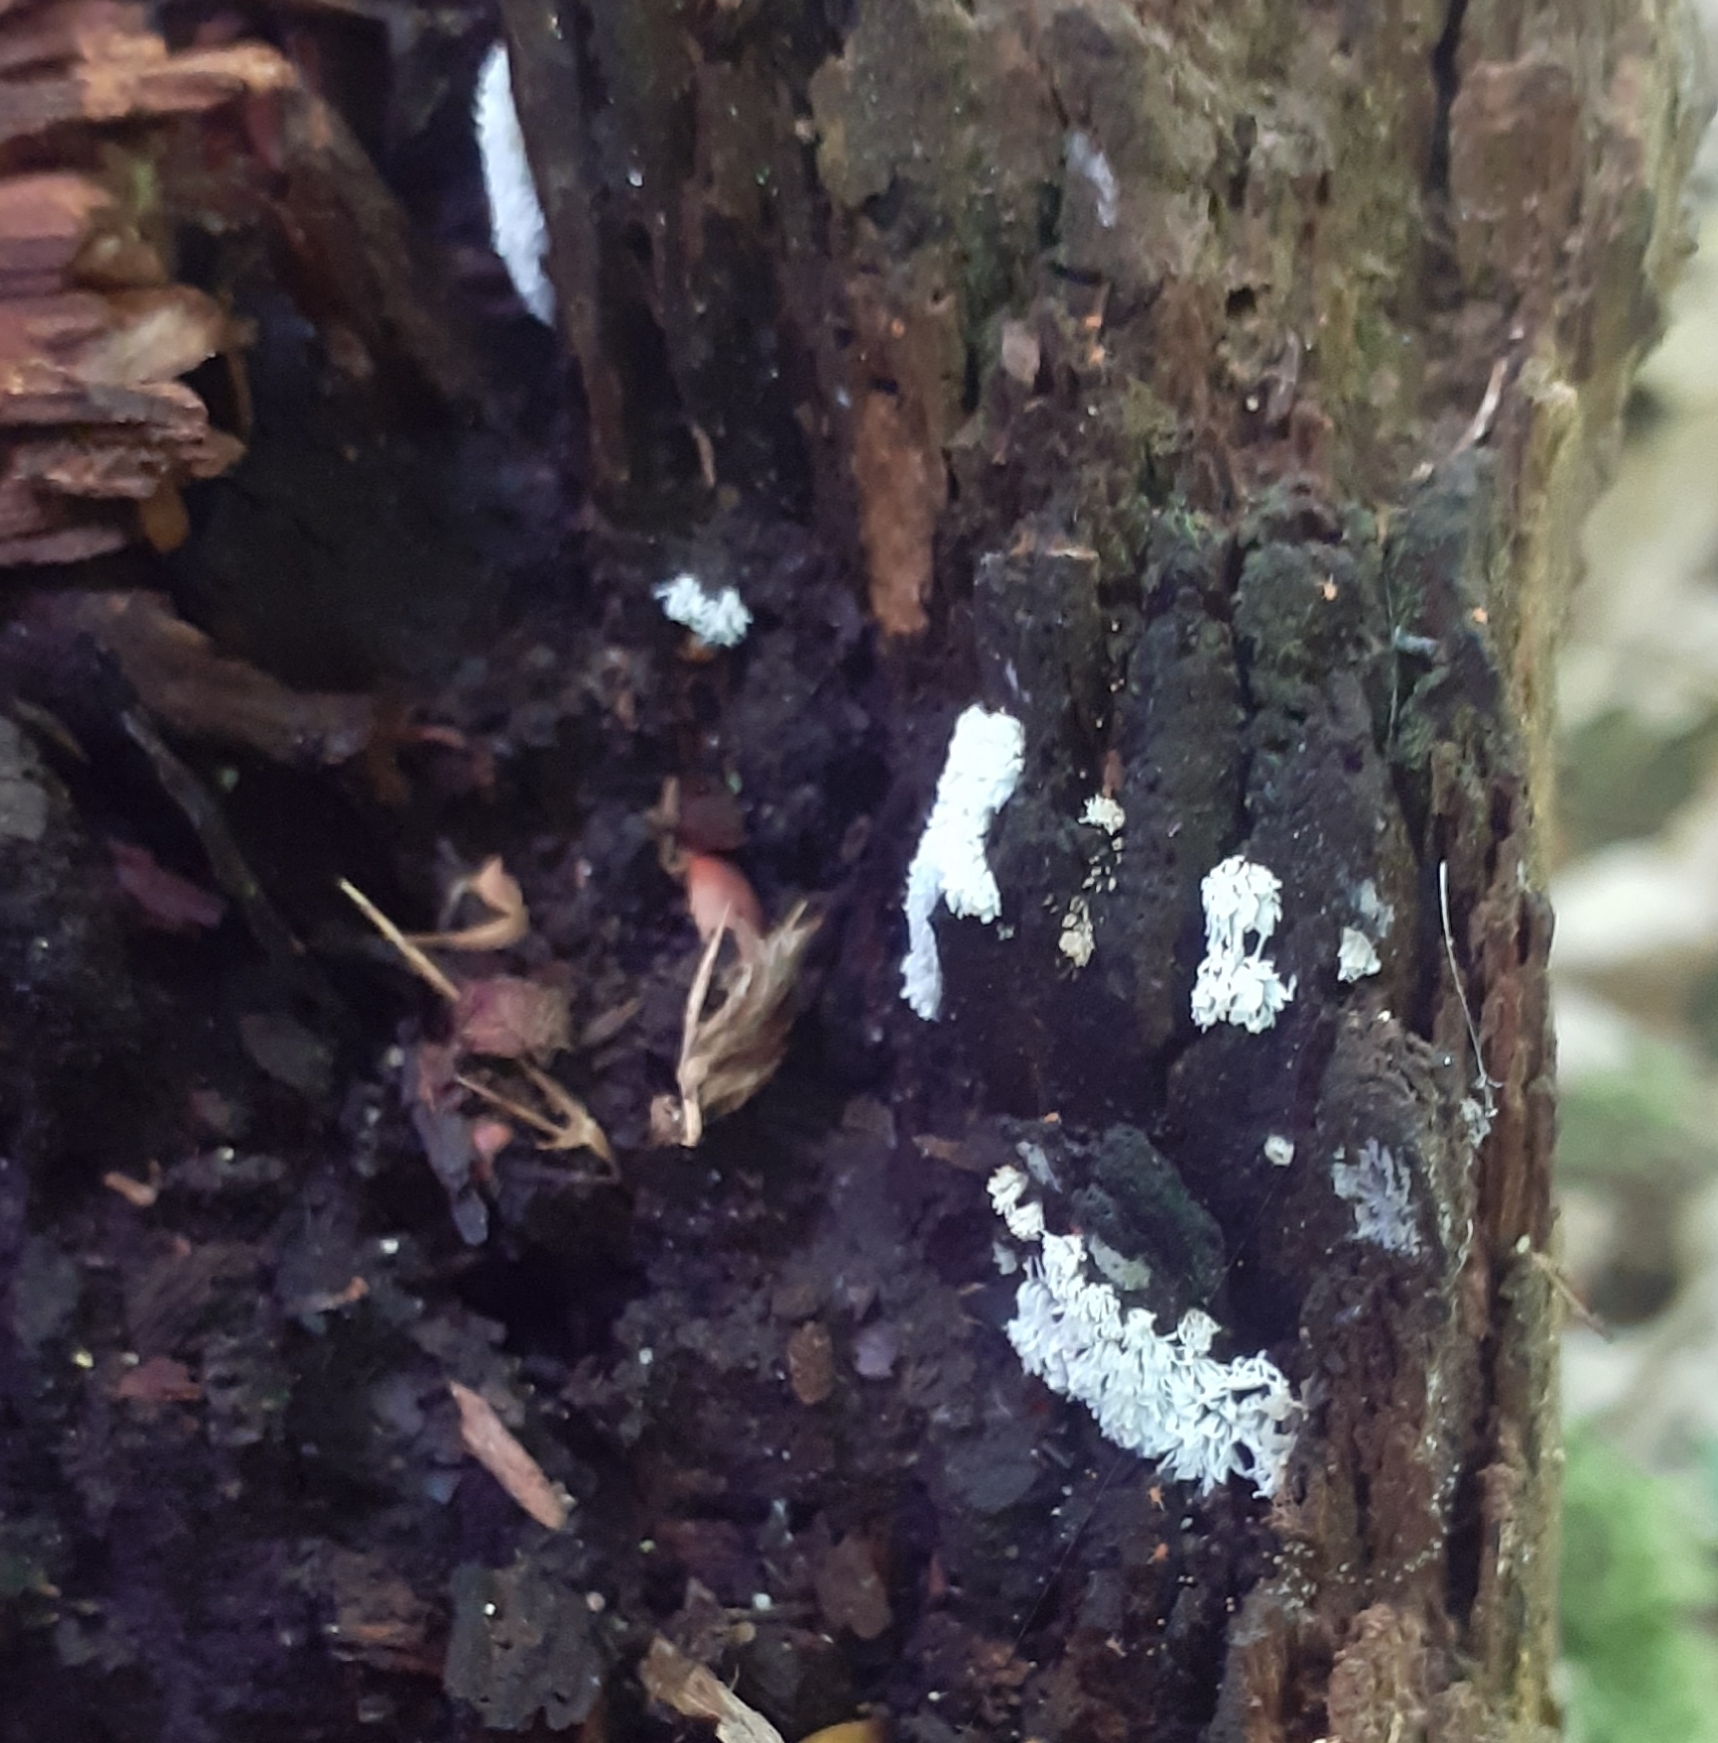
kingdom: Protozoa
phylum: Mycetozoa
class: Protosteliomycetes
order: Ceratiomyxales
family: Ceratiomyxaceae
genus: Ceratiomyxa
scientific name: Ceratiomyxa fruticulosa
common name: Honeycomb coral slime mold
